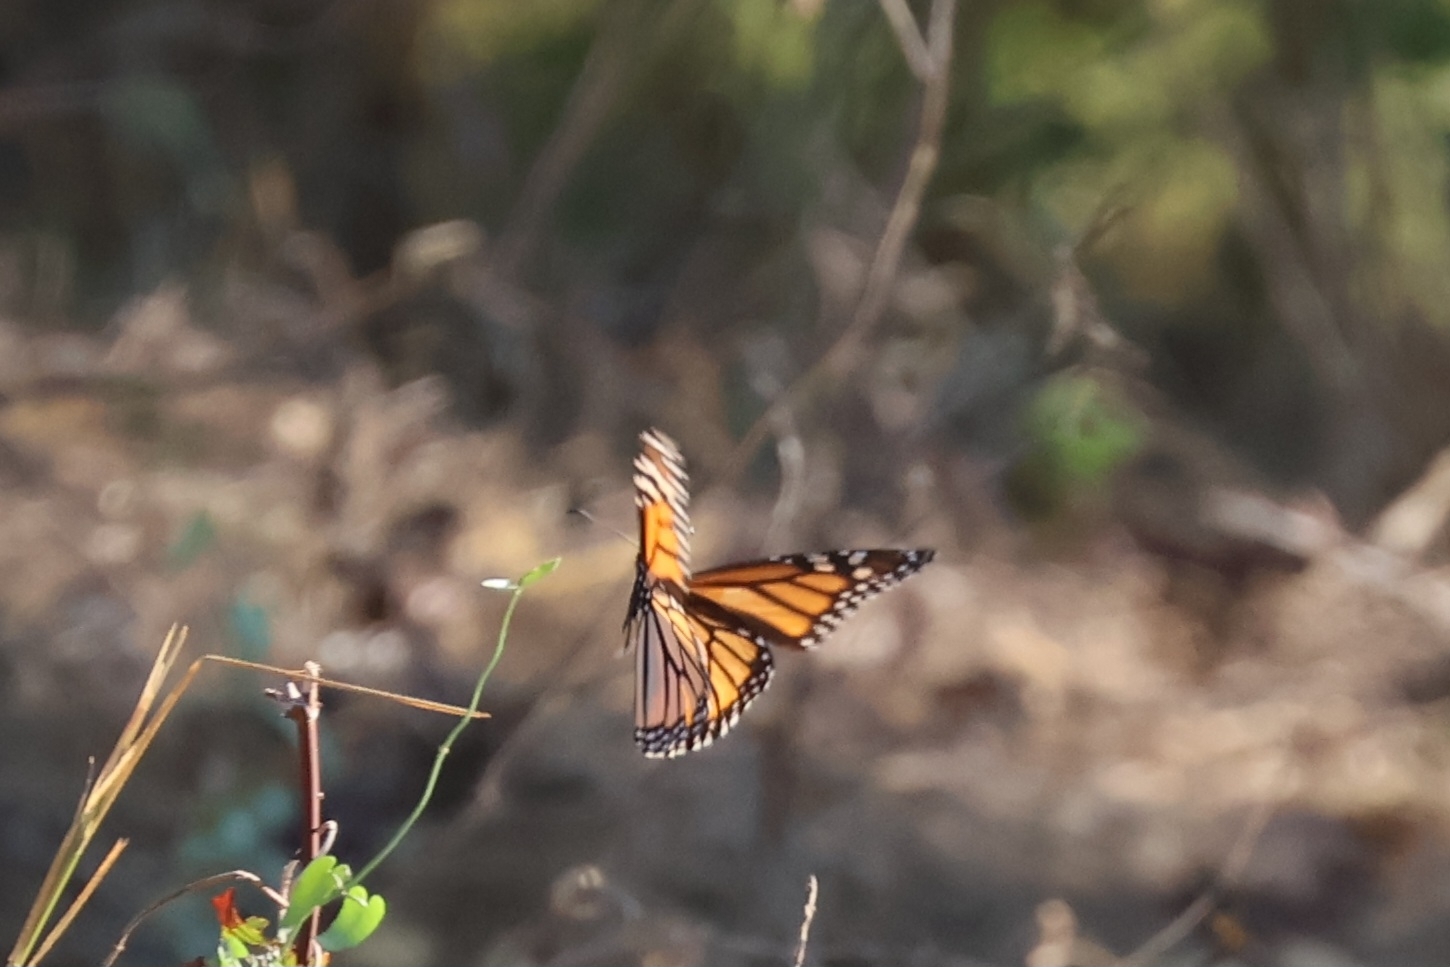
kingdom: Animalia
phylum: Arthropoda
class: Insecta
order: Lepidoptera
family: Nymphalidae
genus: Danaus
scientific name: Danaus plexippus
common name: Monarch
